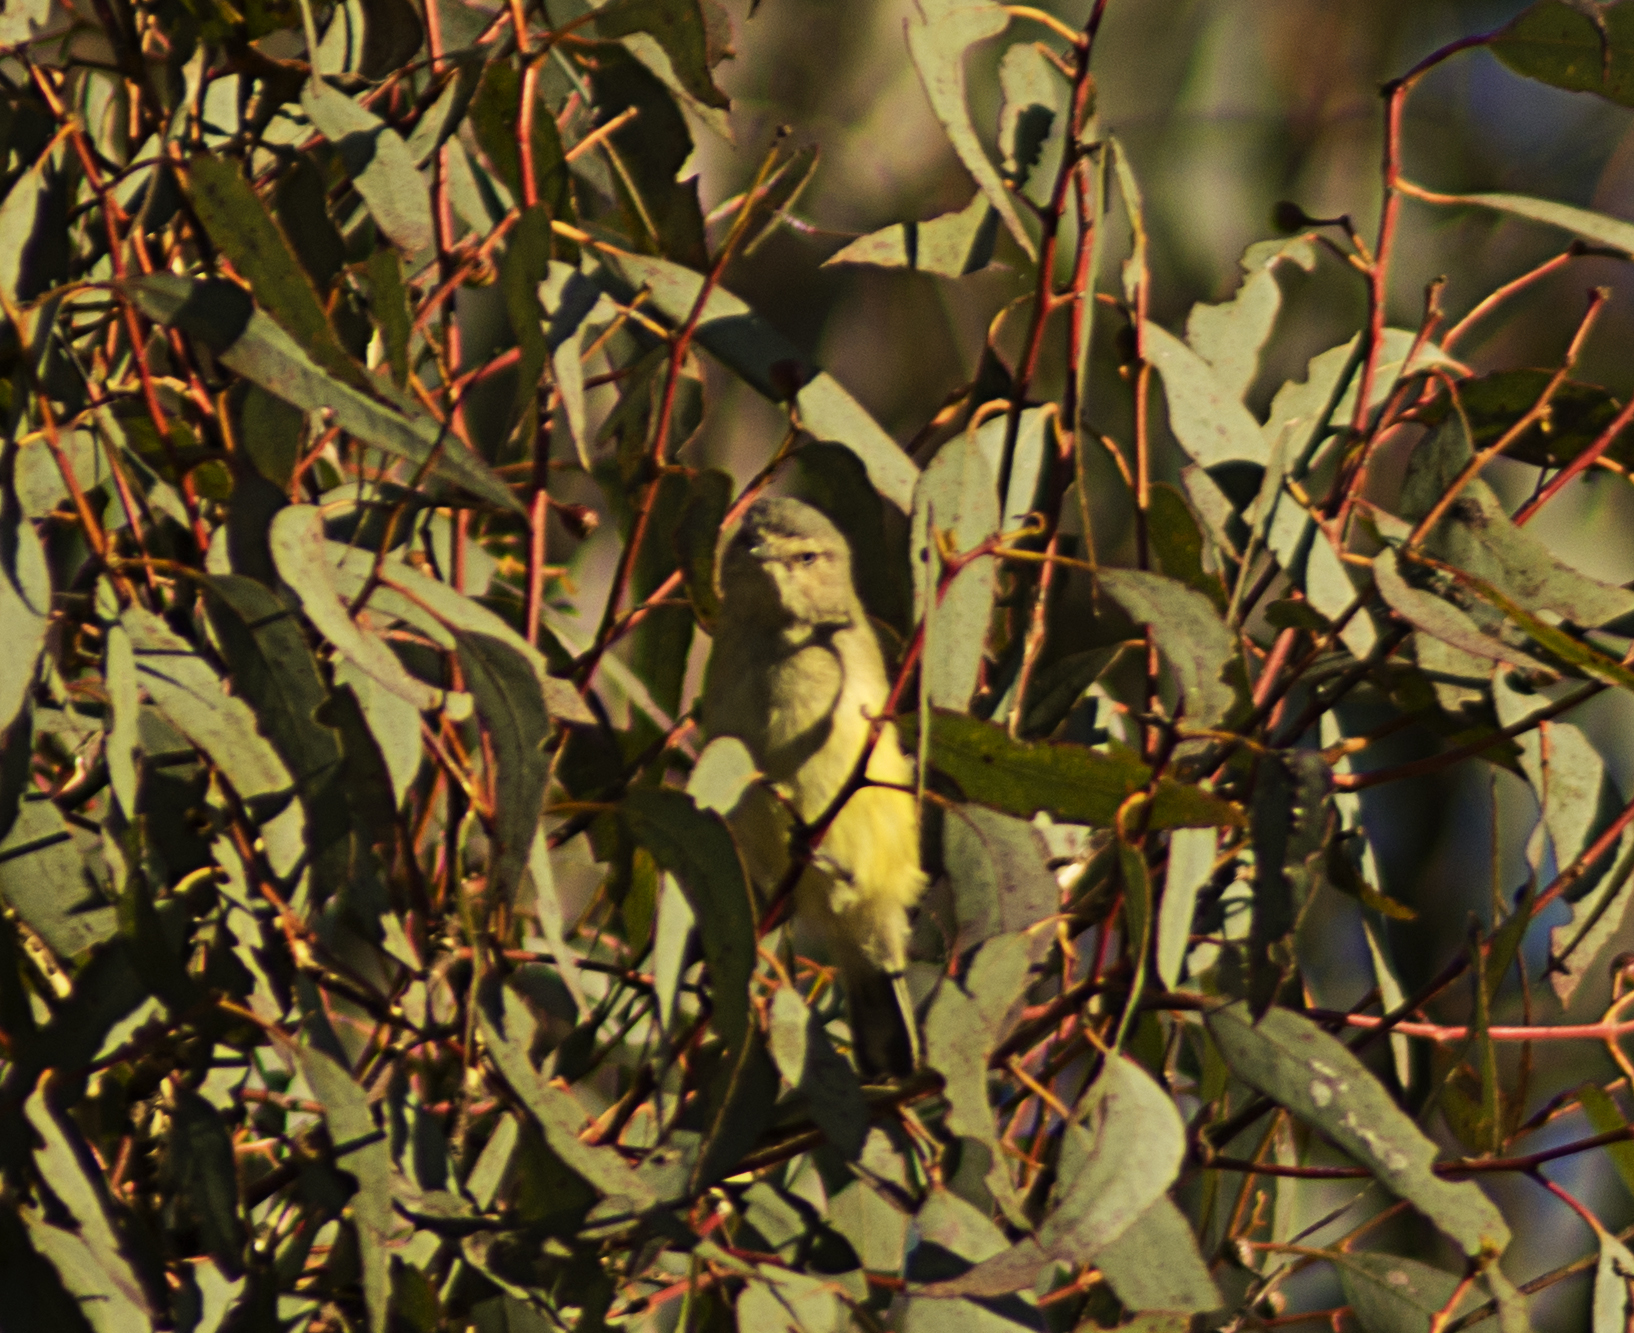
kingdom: Animalia
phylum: Chordata
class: Aves
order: Passeriformes
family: Acanthizidae
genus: Smicrornis
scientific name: Smicrornis brevirostris
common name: Weebill
